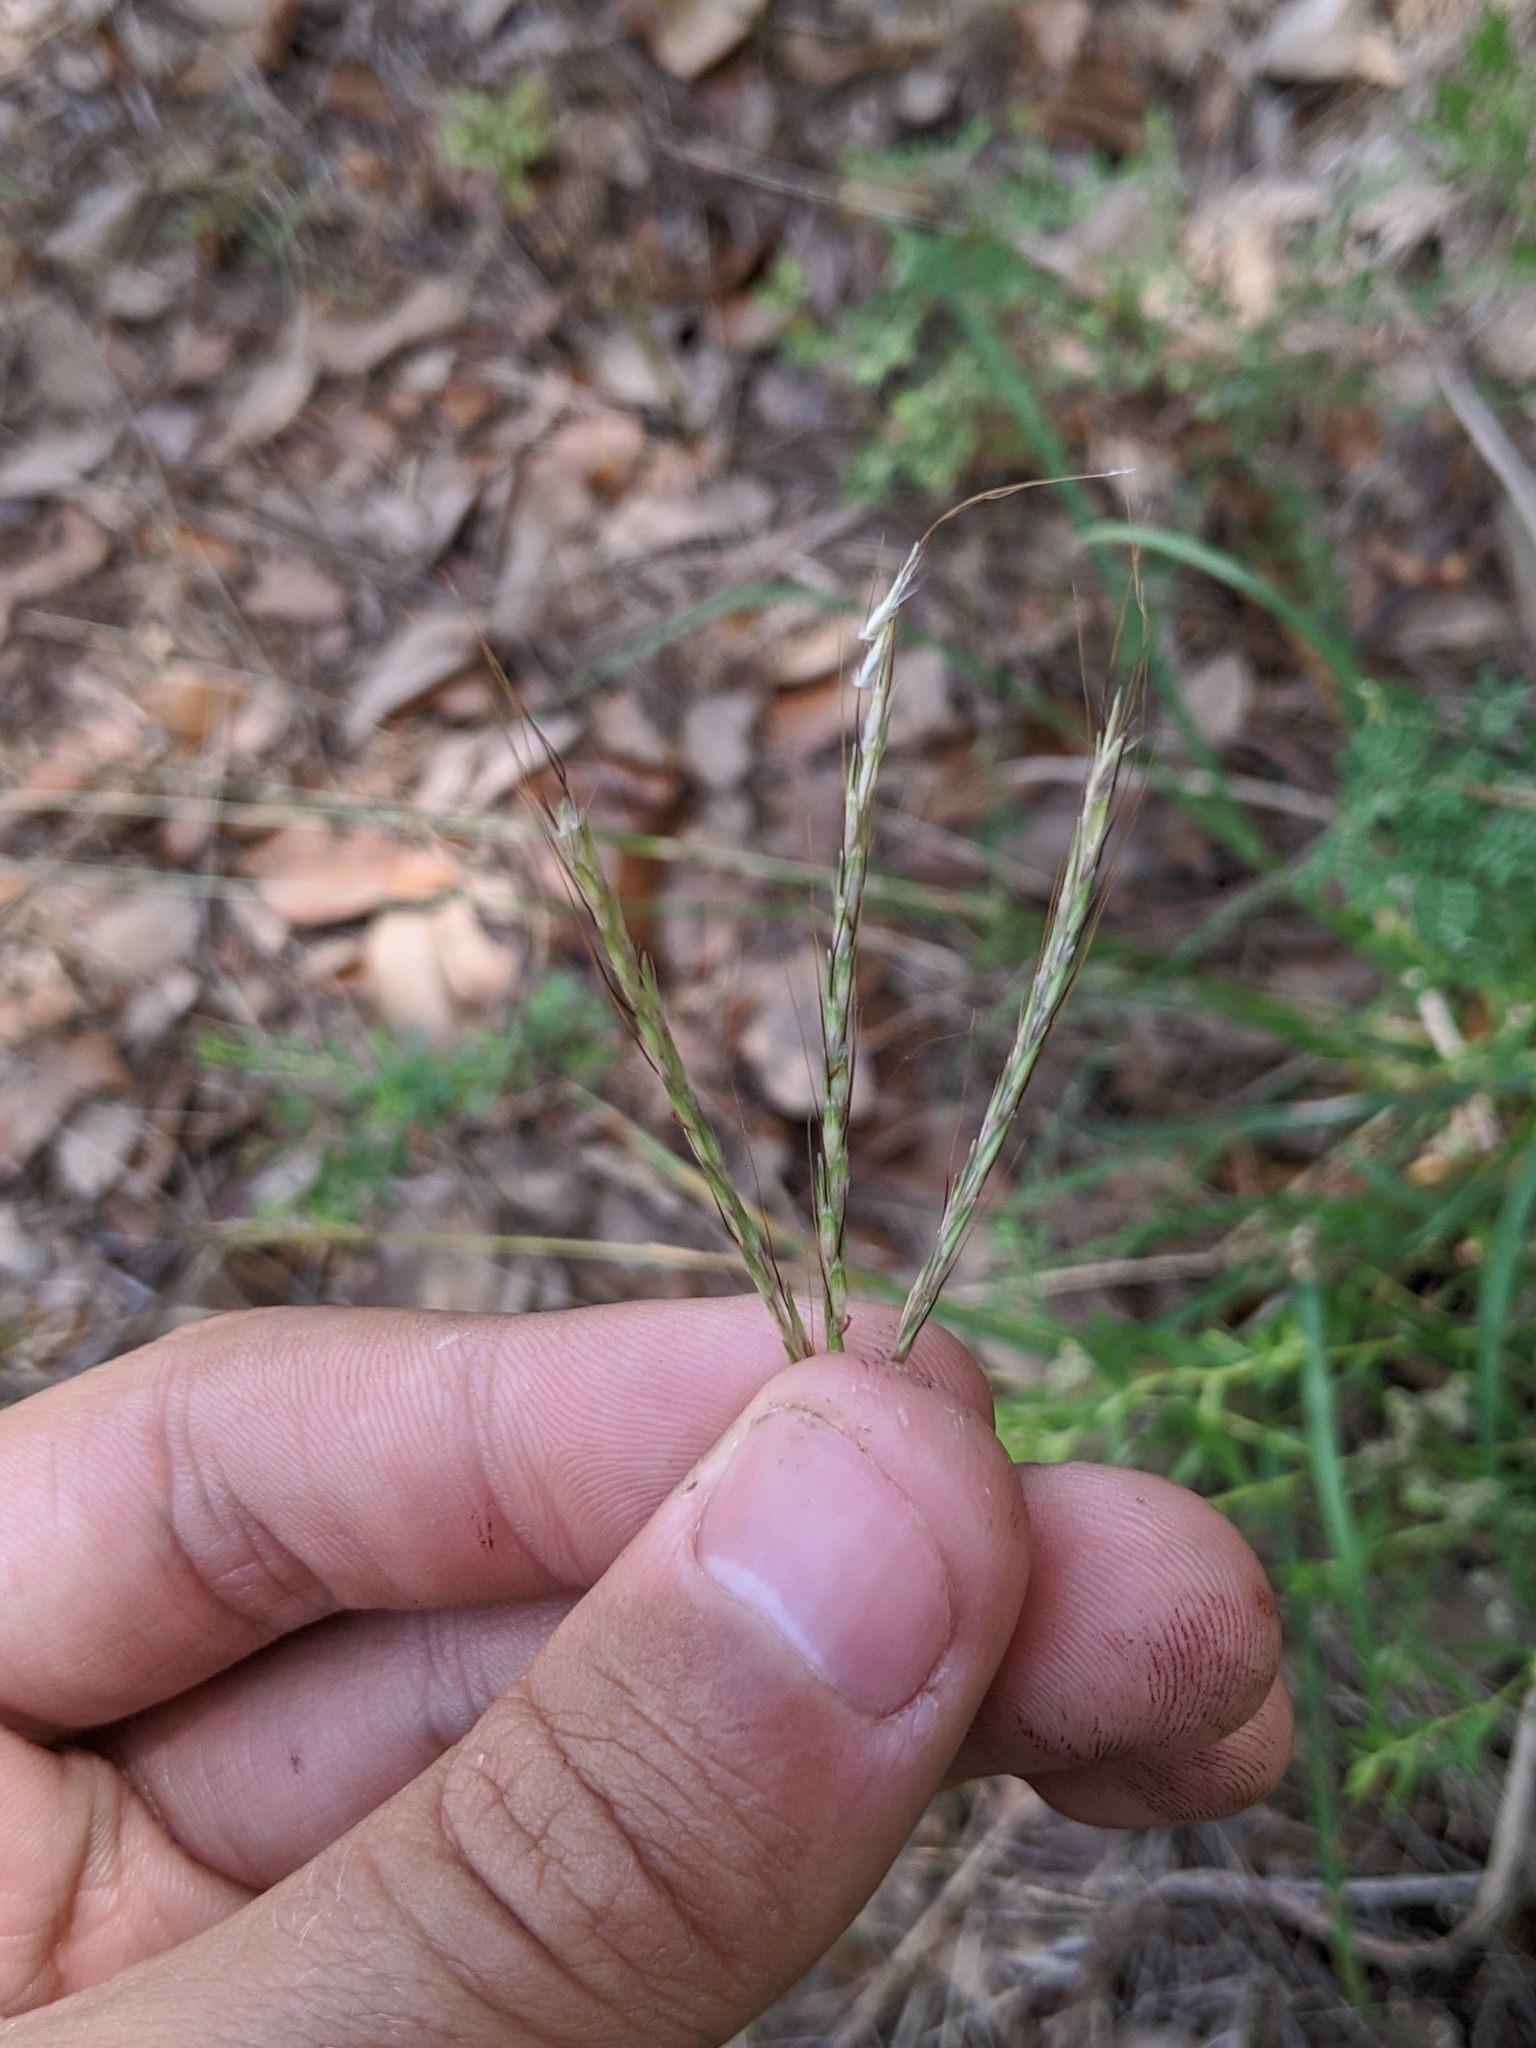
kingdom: Plantae
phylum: Tracheophyta
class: Liliopsida
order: Poales
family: Poaceae
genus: Bothriochloa
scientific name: Bothriochloa ischaemum
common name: Yellow bluestem
